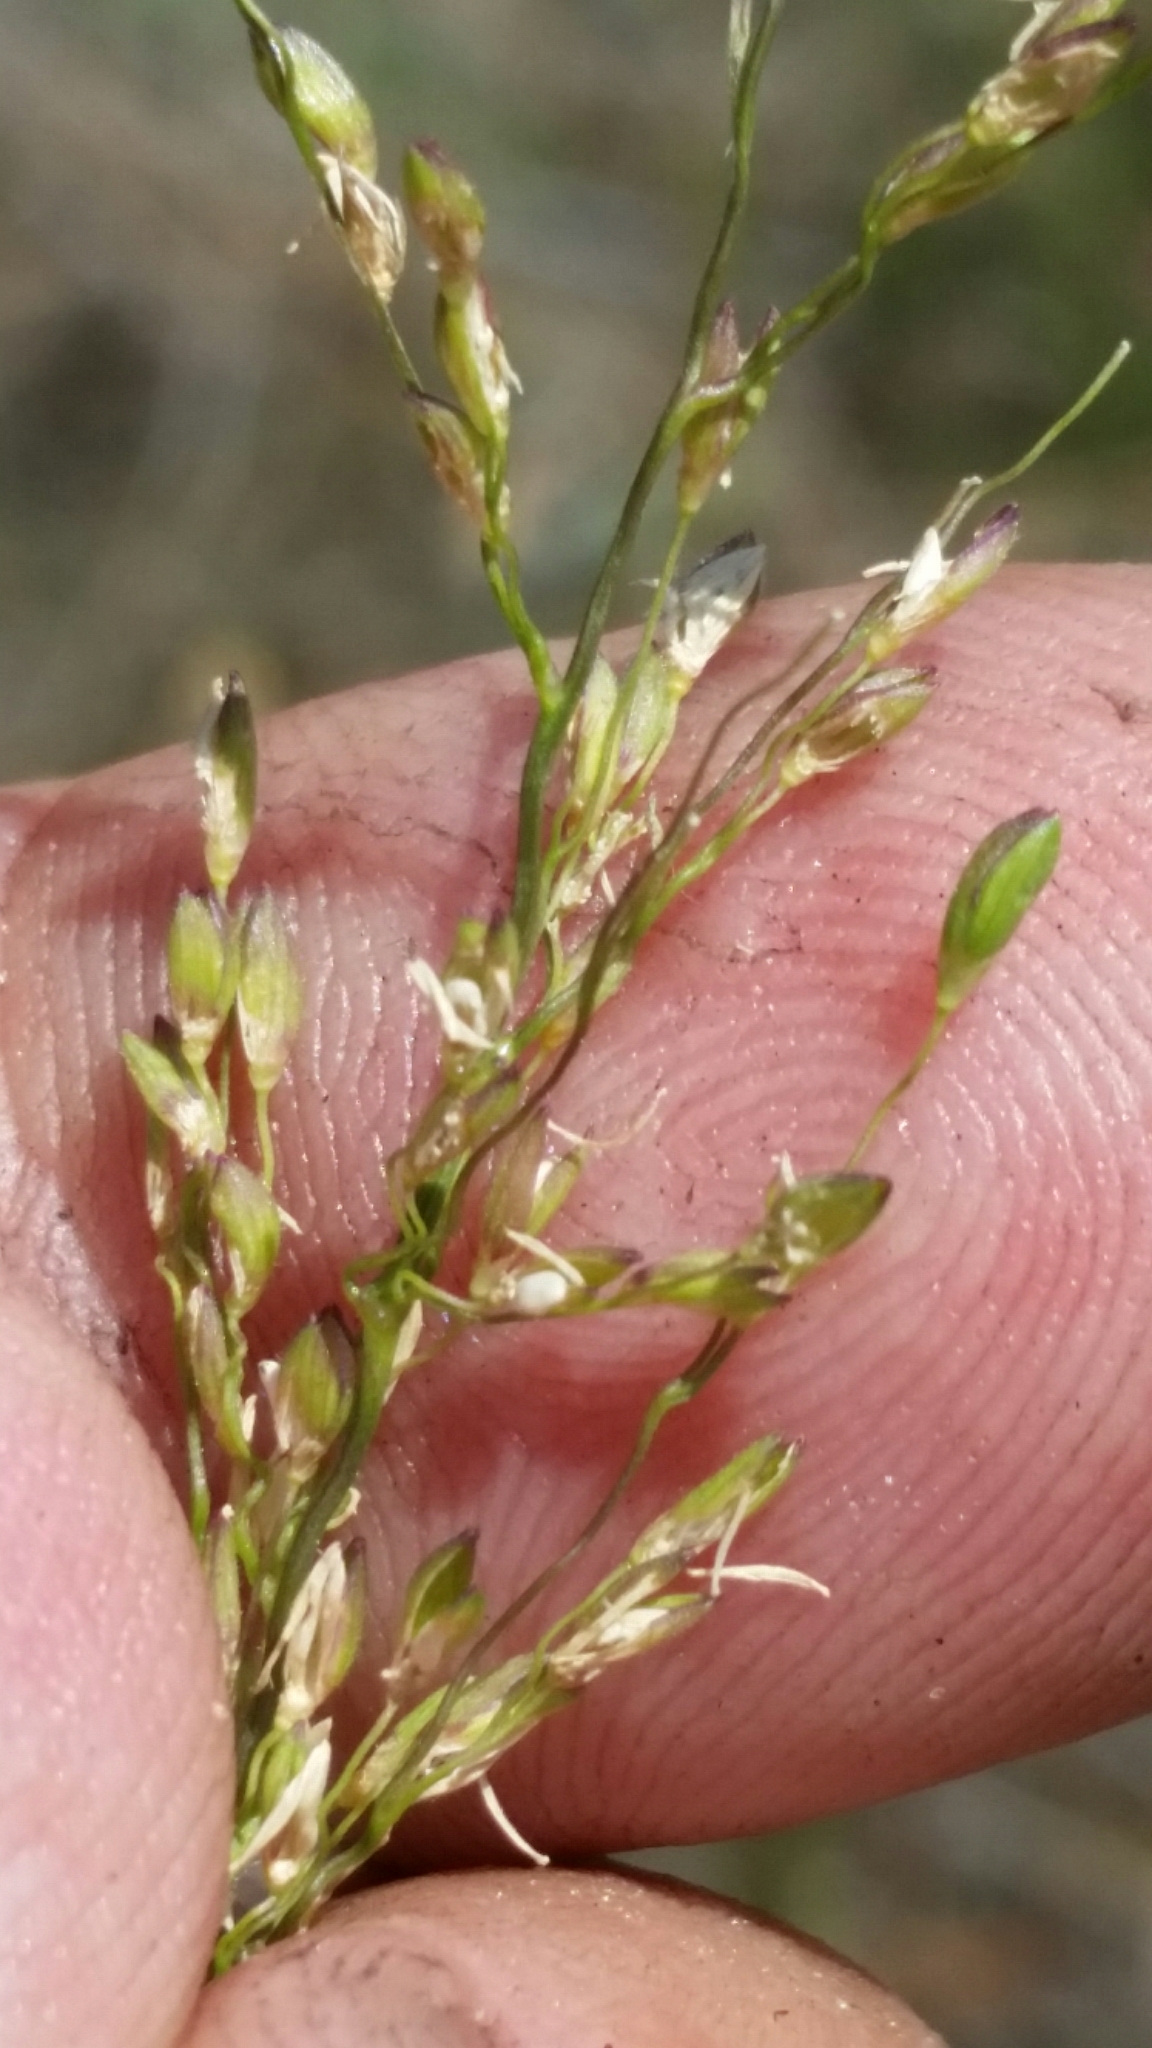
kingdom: Plantae
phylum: Tracheophyta
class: Liliopsida
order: Poales
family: Poaceae
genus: Dichanthelium
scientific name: Dichanthelium pinetorum
